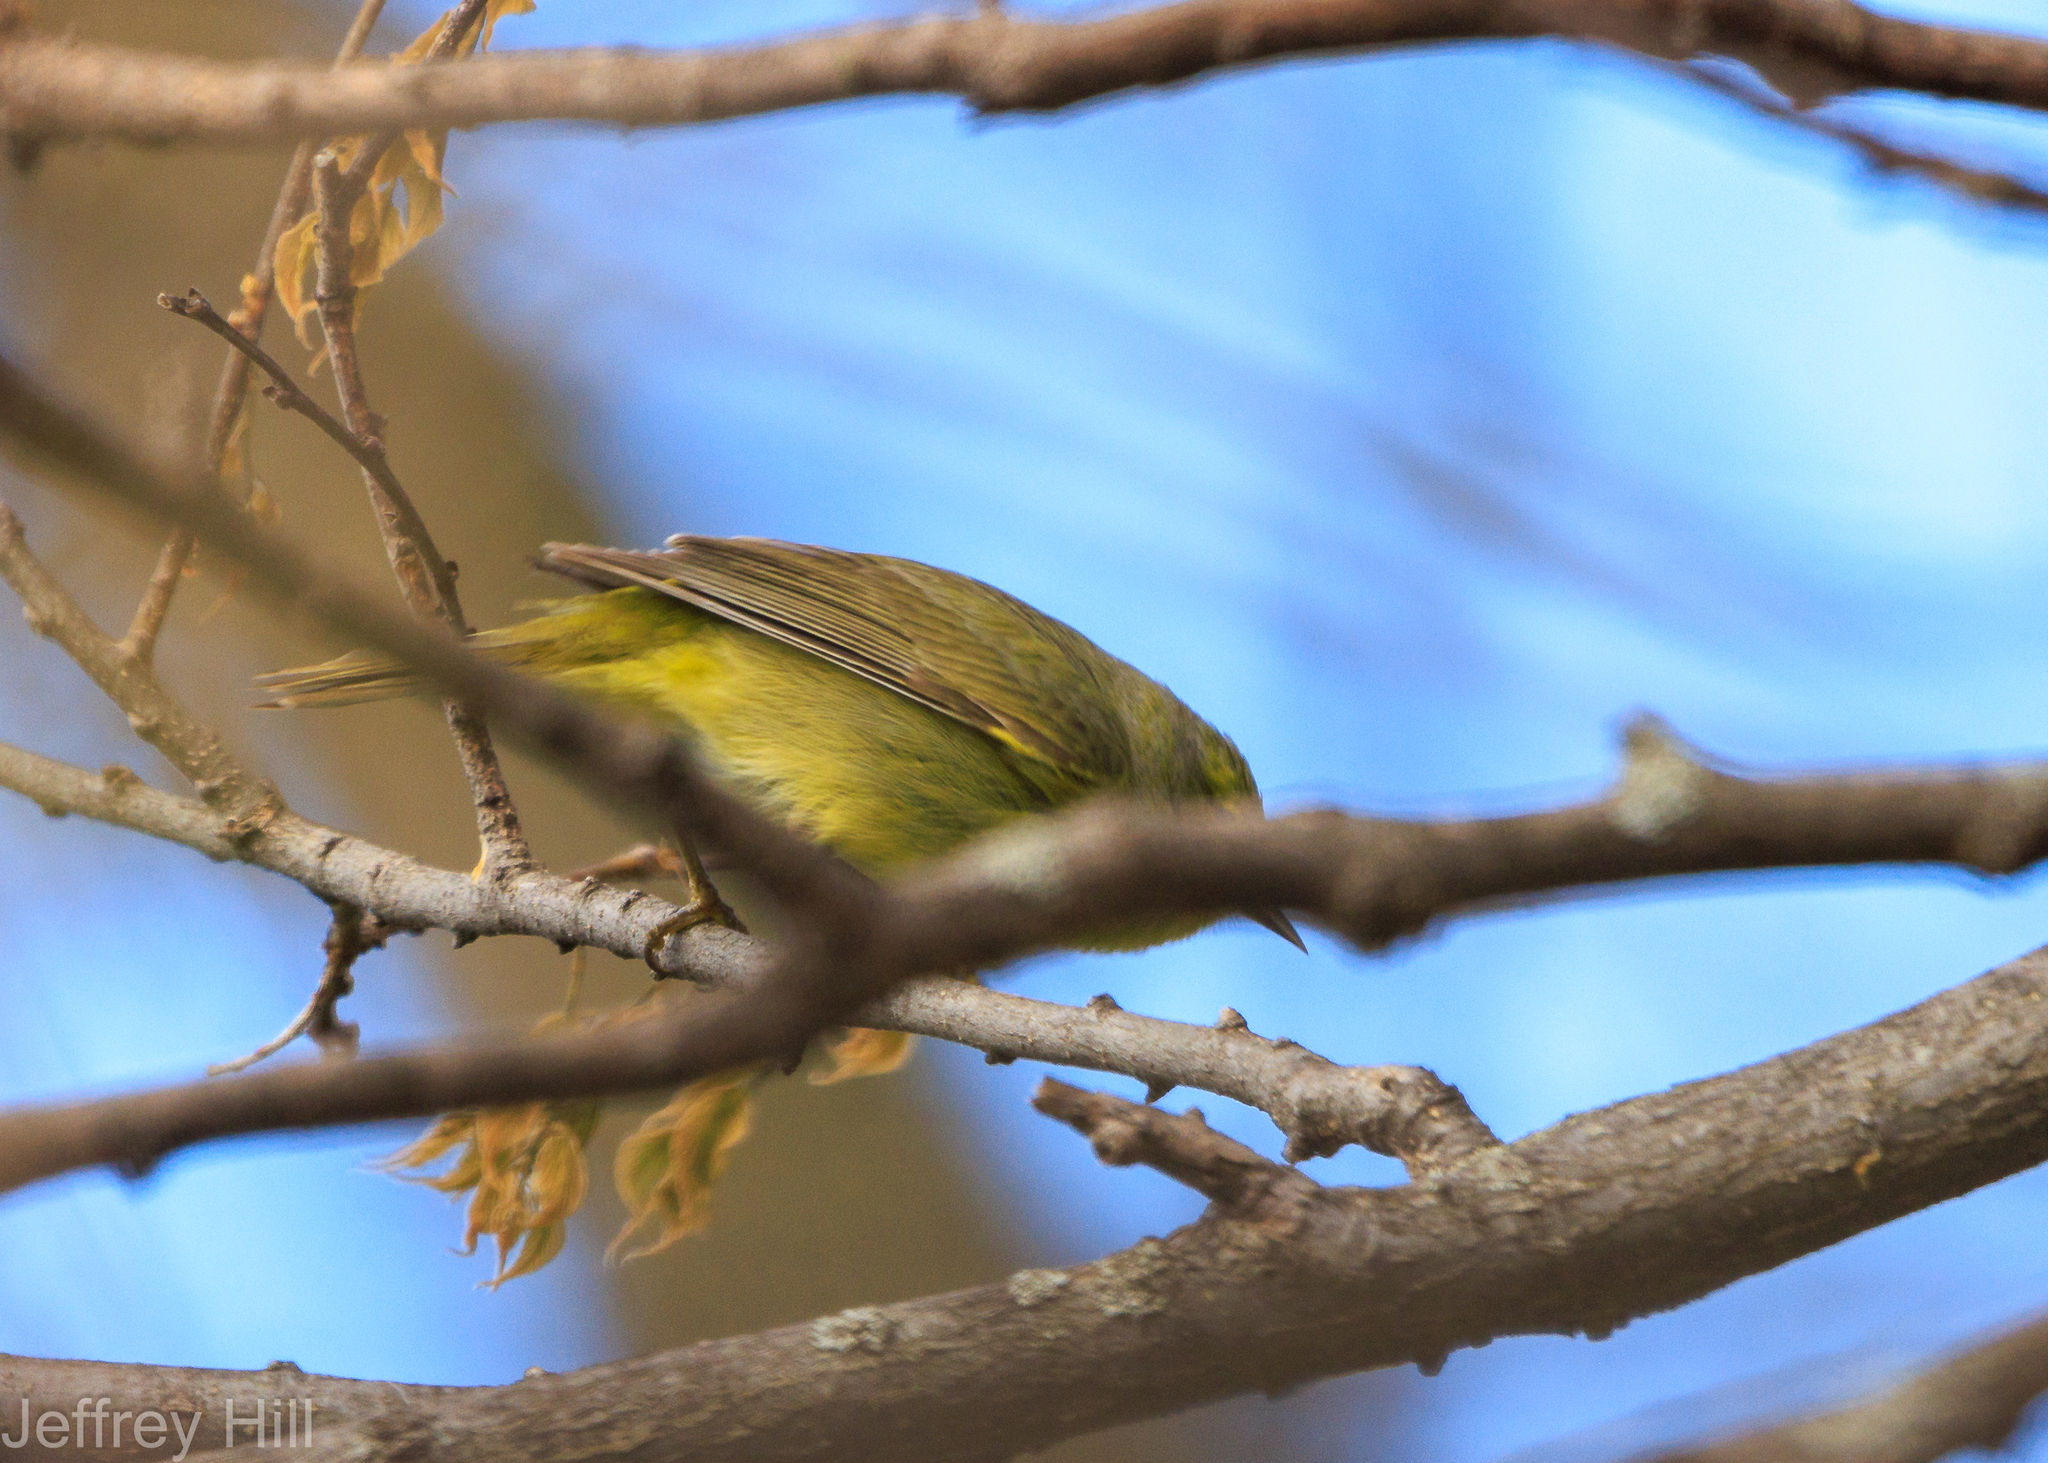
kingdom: Animalia
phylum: Chordata
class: Aves
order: Passeriformes
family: Parulidae
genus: Leiothlypis
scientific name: Leiothlypis celata
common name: Orange-crowned warbler
